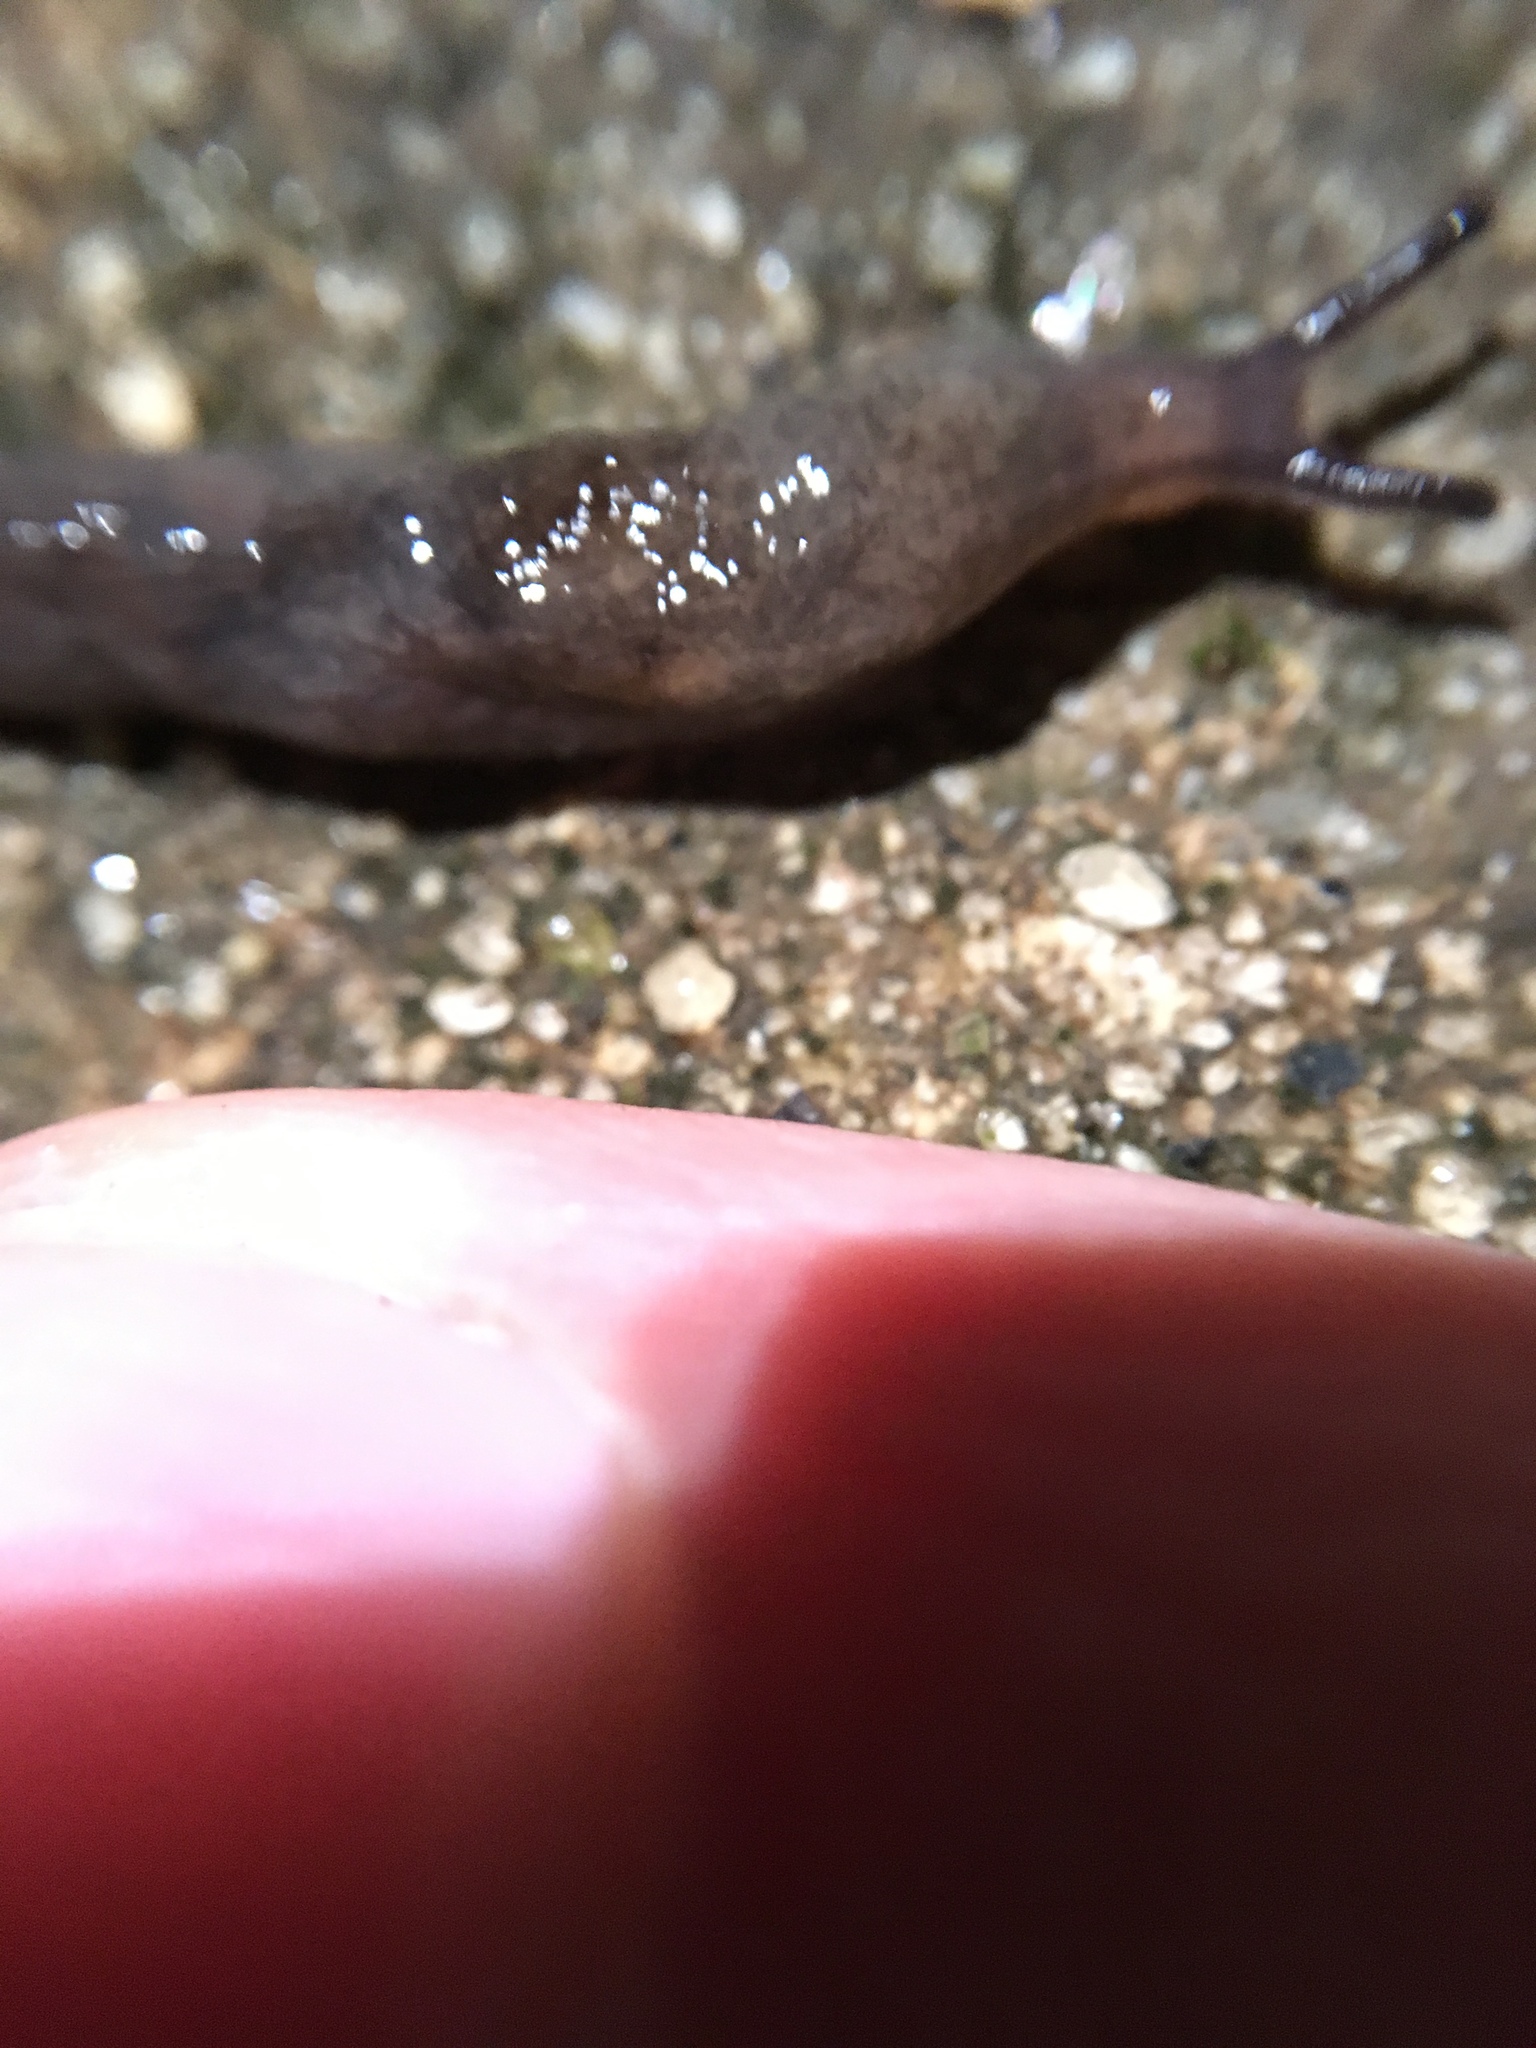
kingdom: Animalia
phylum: Mollusca
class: Gastropoda
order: Stylommatophora
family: Agriolimacidae
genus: Deroceras
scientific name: Deroceras invadens
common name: Caruana's slug
